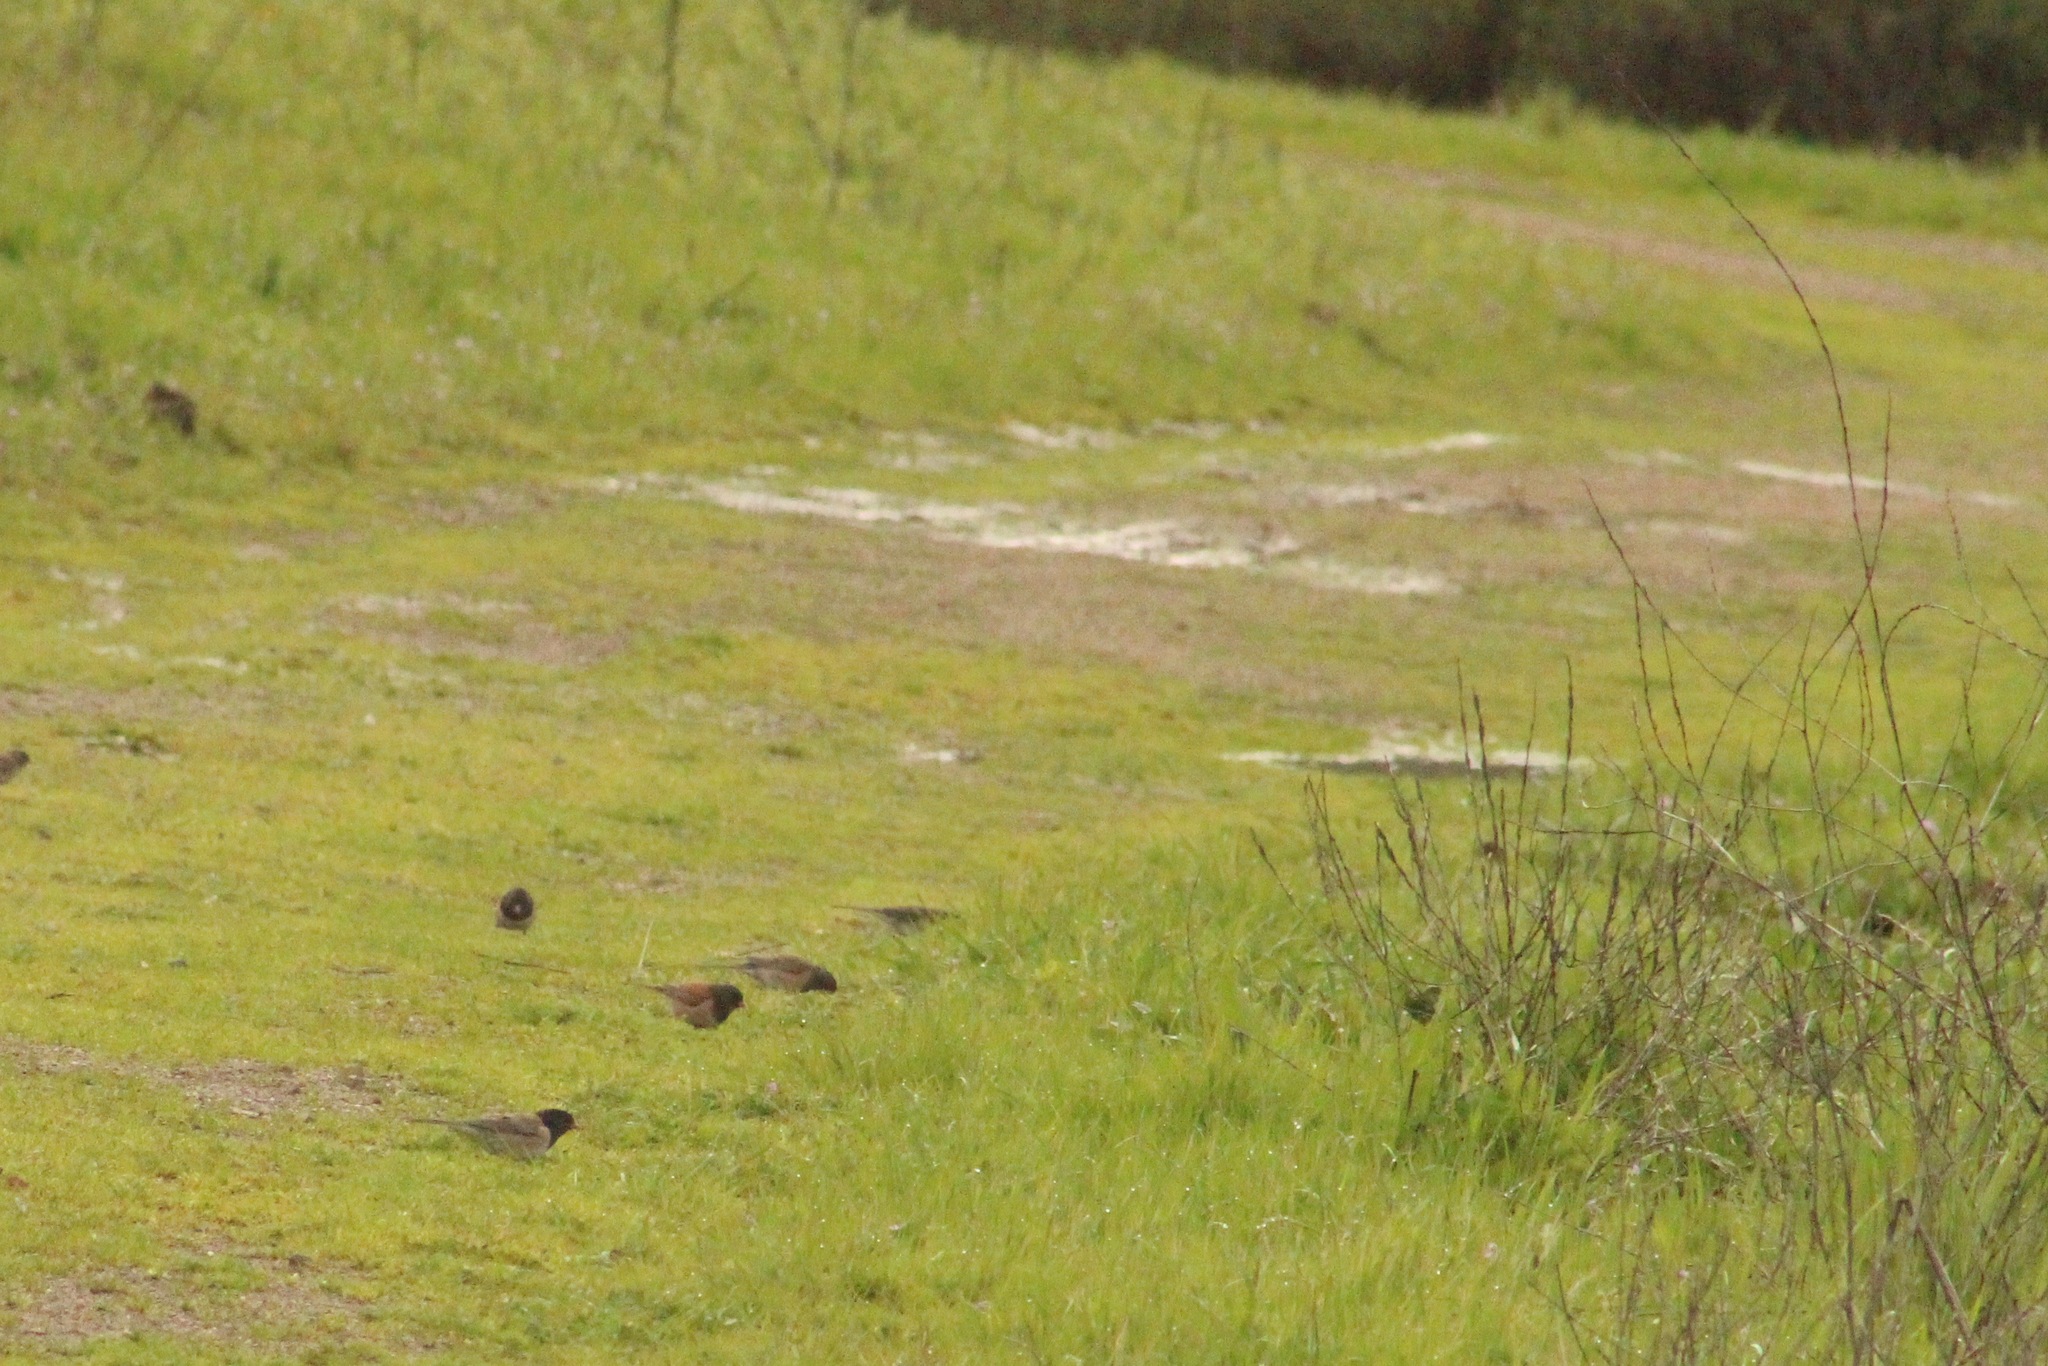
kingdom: Animalia
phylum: Chordata
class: Aves
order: Passeriformes
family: Passerellidae
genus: Junco
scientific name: Junco hyemalis
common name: Dark-eyed junco
